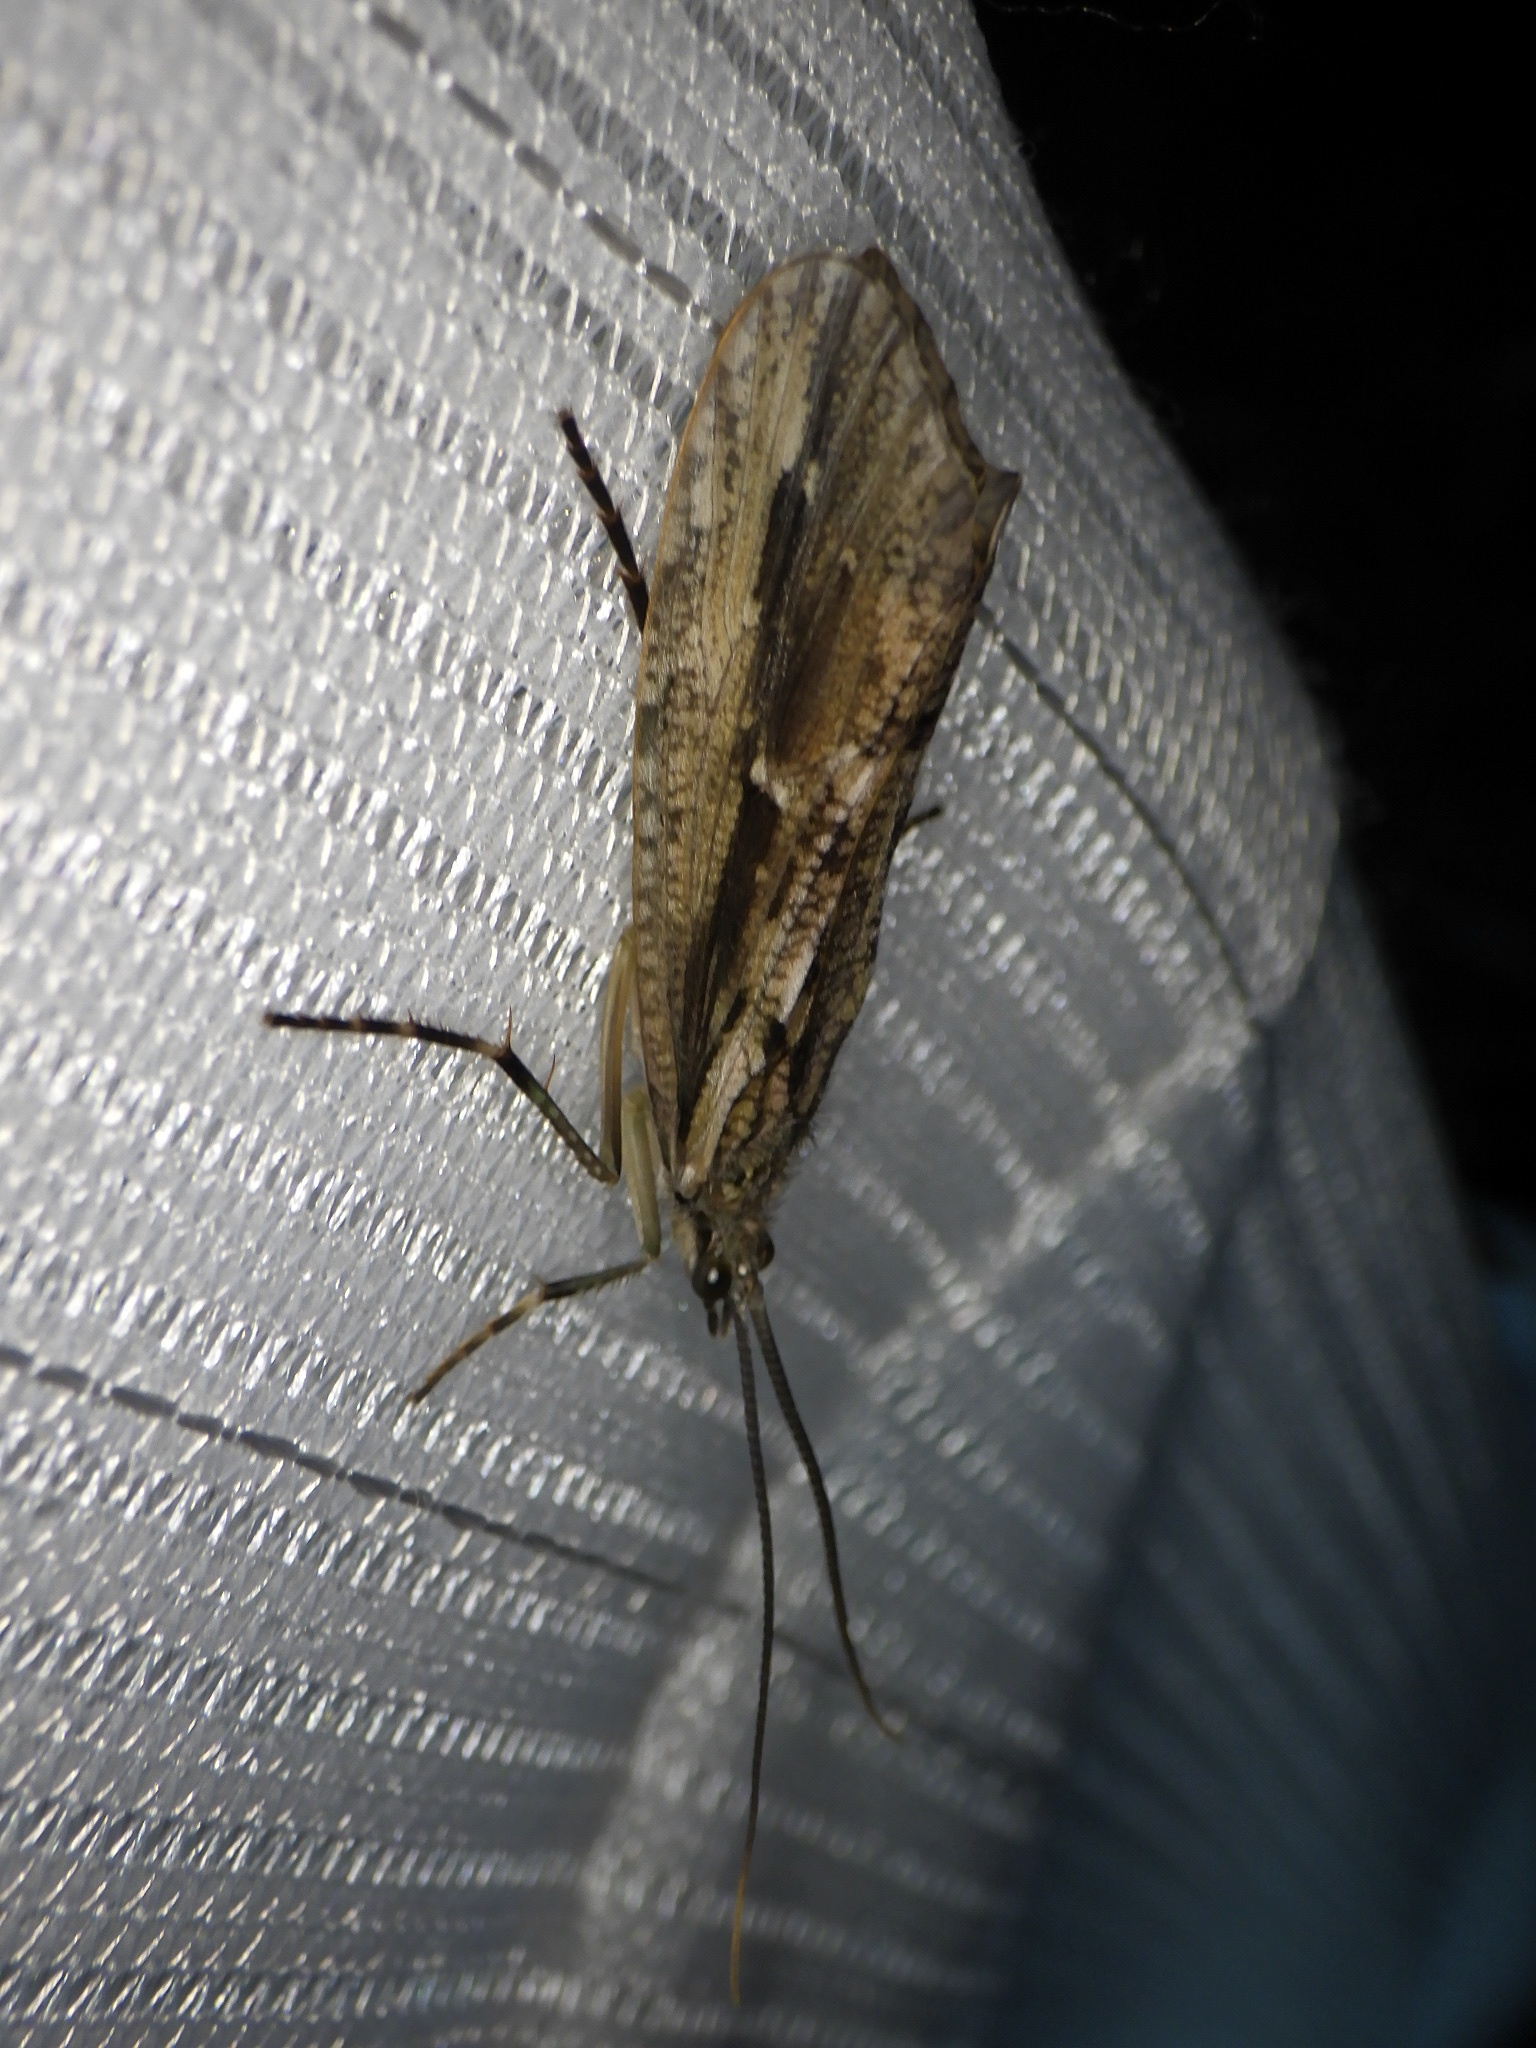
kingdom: Animalia
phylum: Arthropoda
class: Insecta
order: Trichoptera
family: Phryganeidae
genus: Phryganea
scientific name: Phryganea japonica
